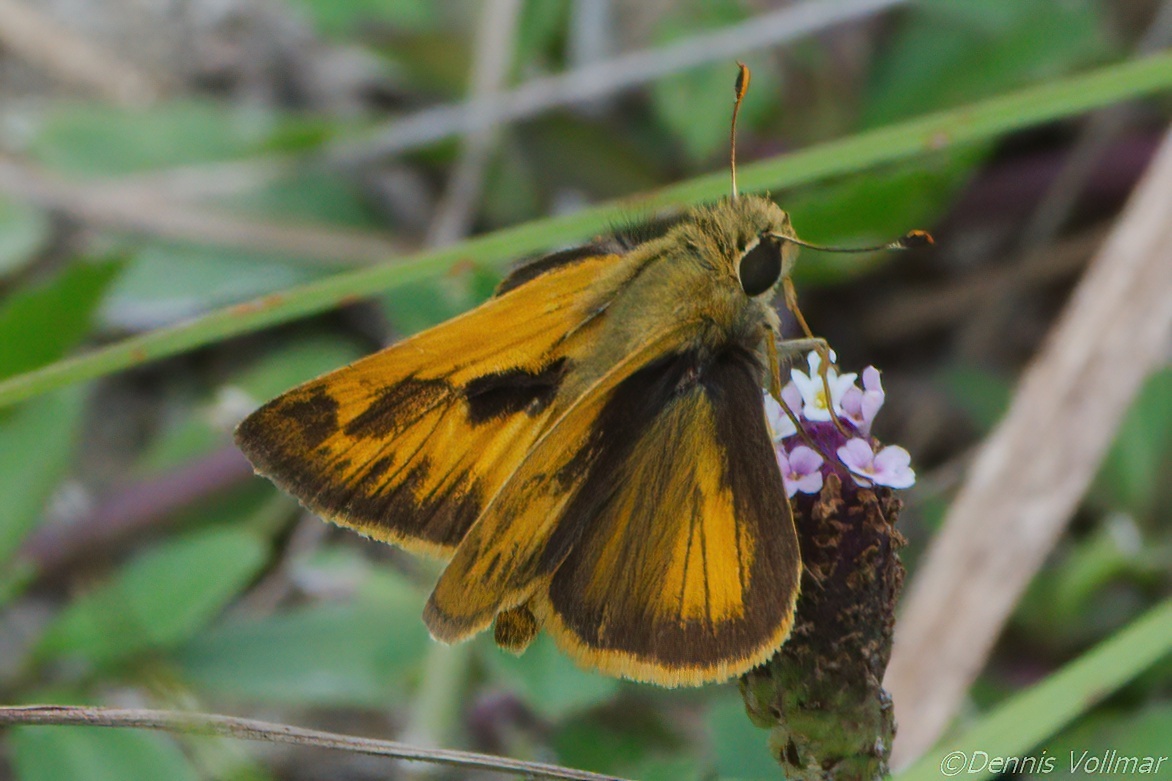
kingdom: Animalia
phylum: Arthropoda
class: Insecta
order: Lepidoptera
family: Hesperiidae
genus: Polites
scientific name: Polites vibex
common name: Whirlabout
